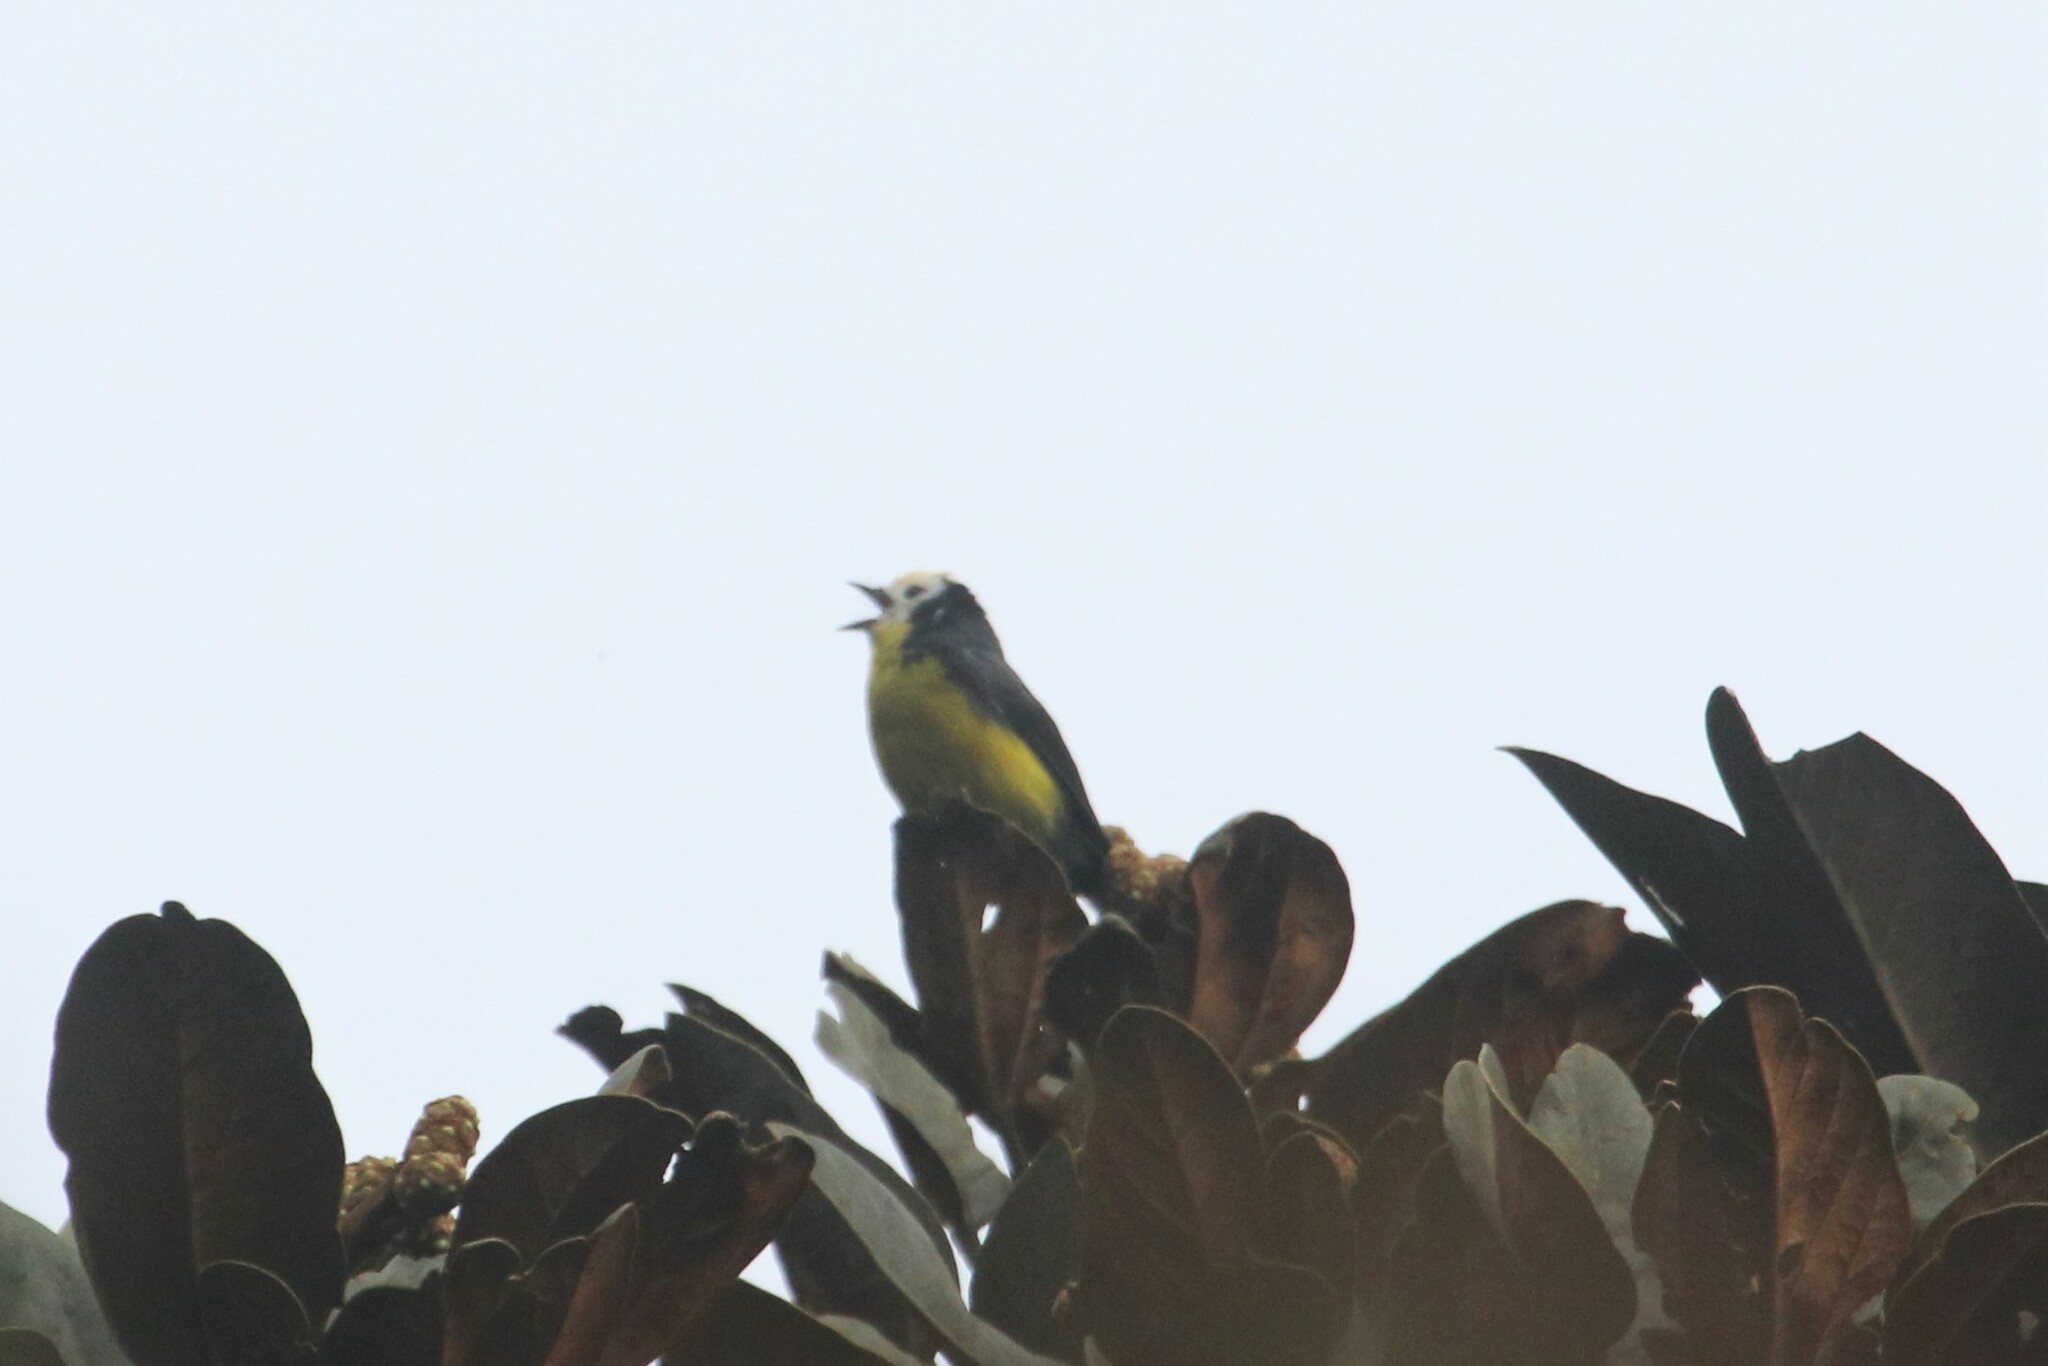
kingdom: Animalia
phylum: Chordata
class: Aves
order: Passeriformes
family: Parulidae
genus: Myioborus
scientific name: Myioborus ornatus
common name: Golden-fronted whitestart
